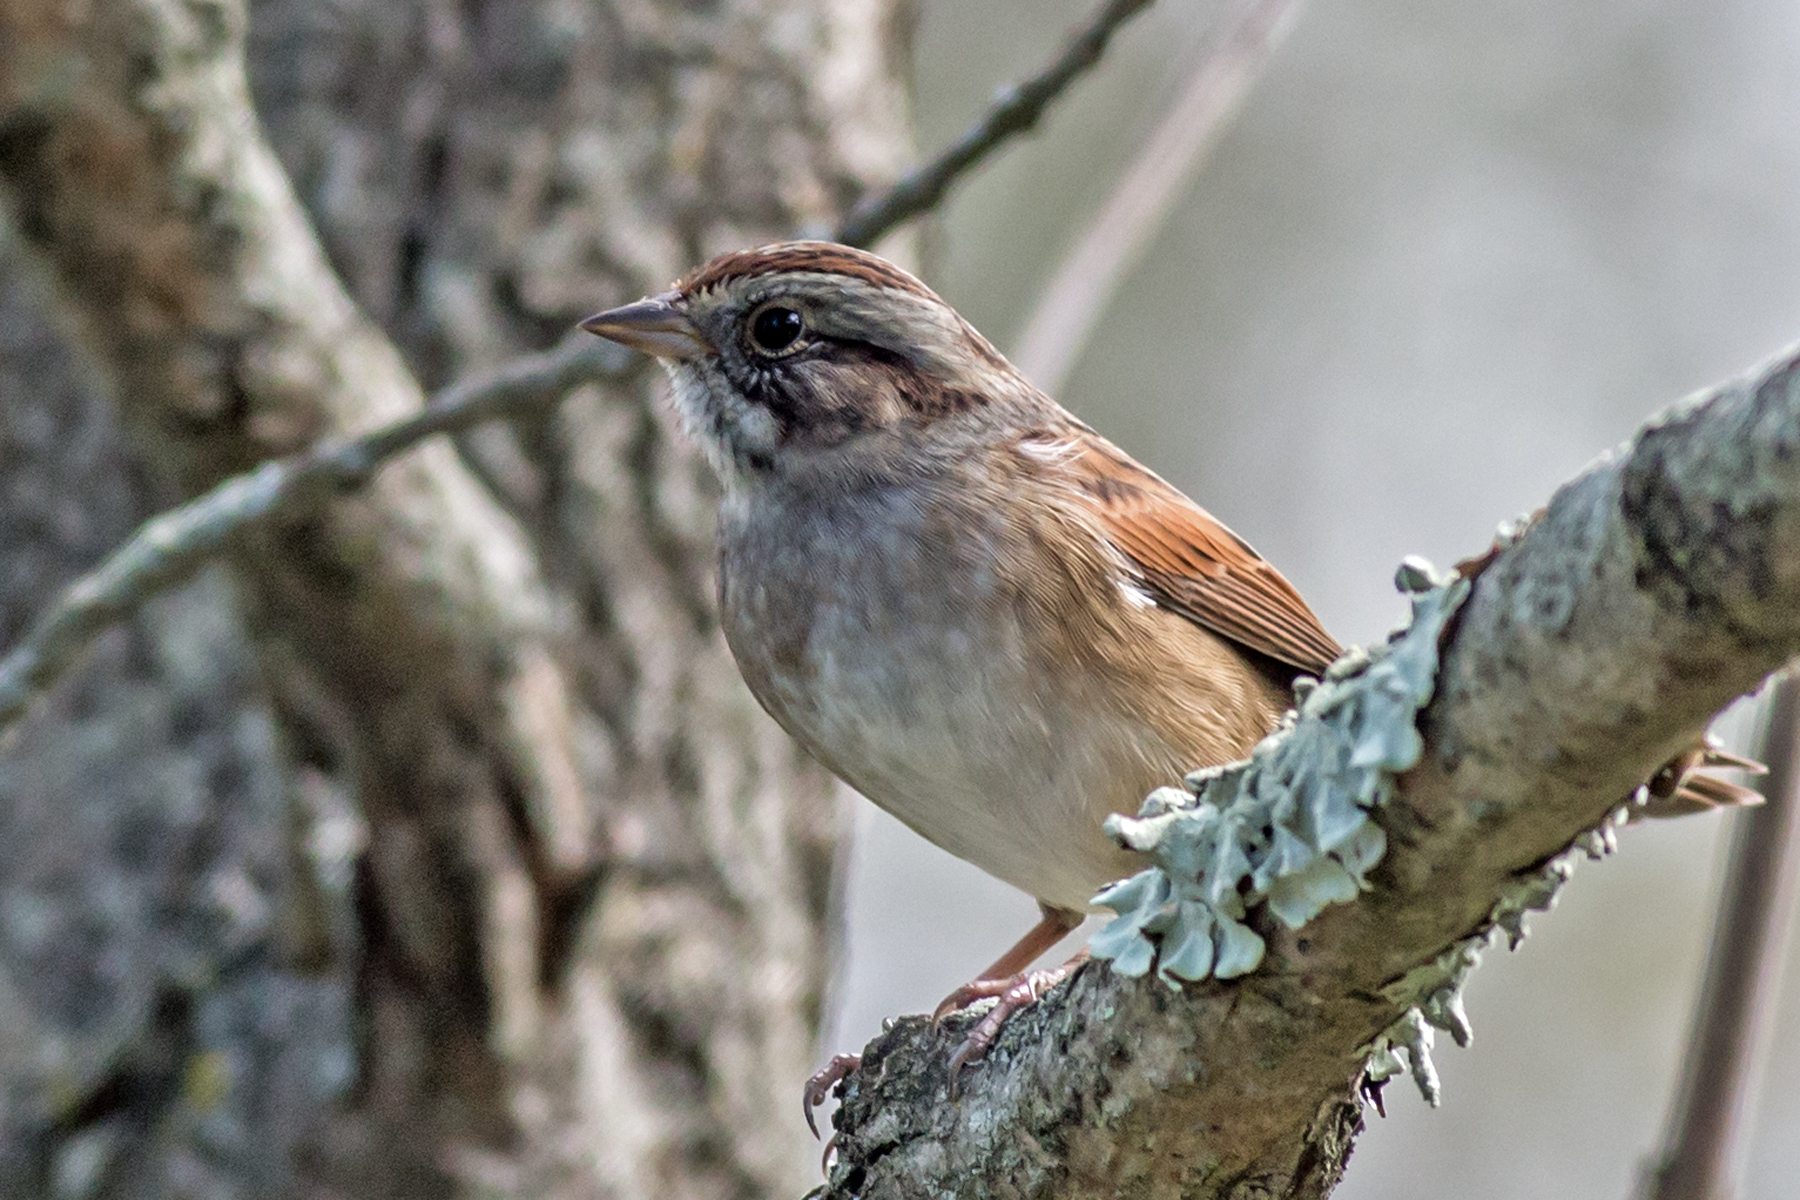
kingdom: Animalia
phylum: Chordata
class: Aves
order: Passeriformes
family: Passerellidae
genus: Melospiza
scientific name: Melospiza georgiana
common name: Swamp sparrow
